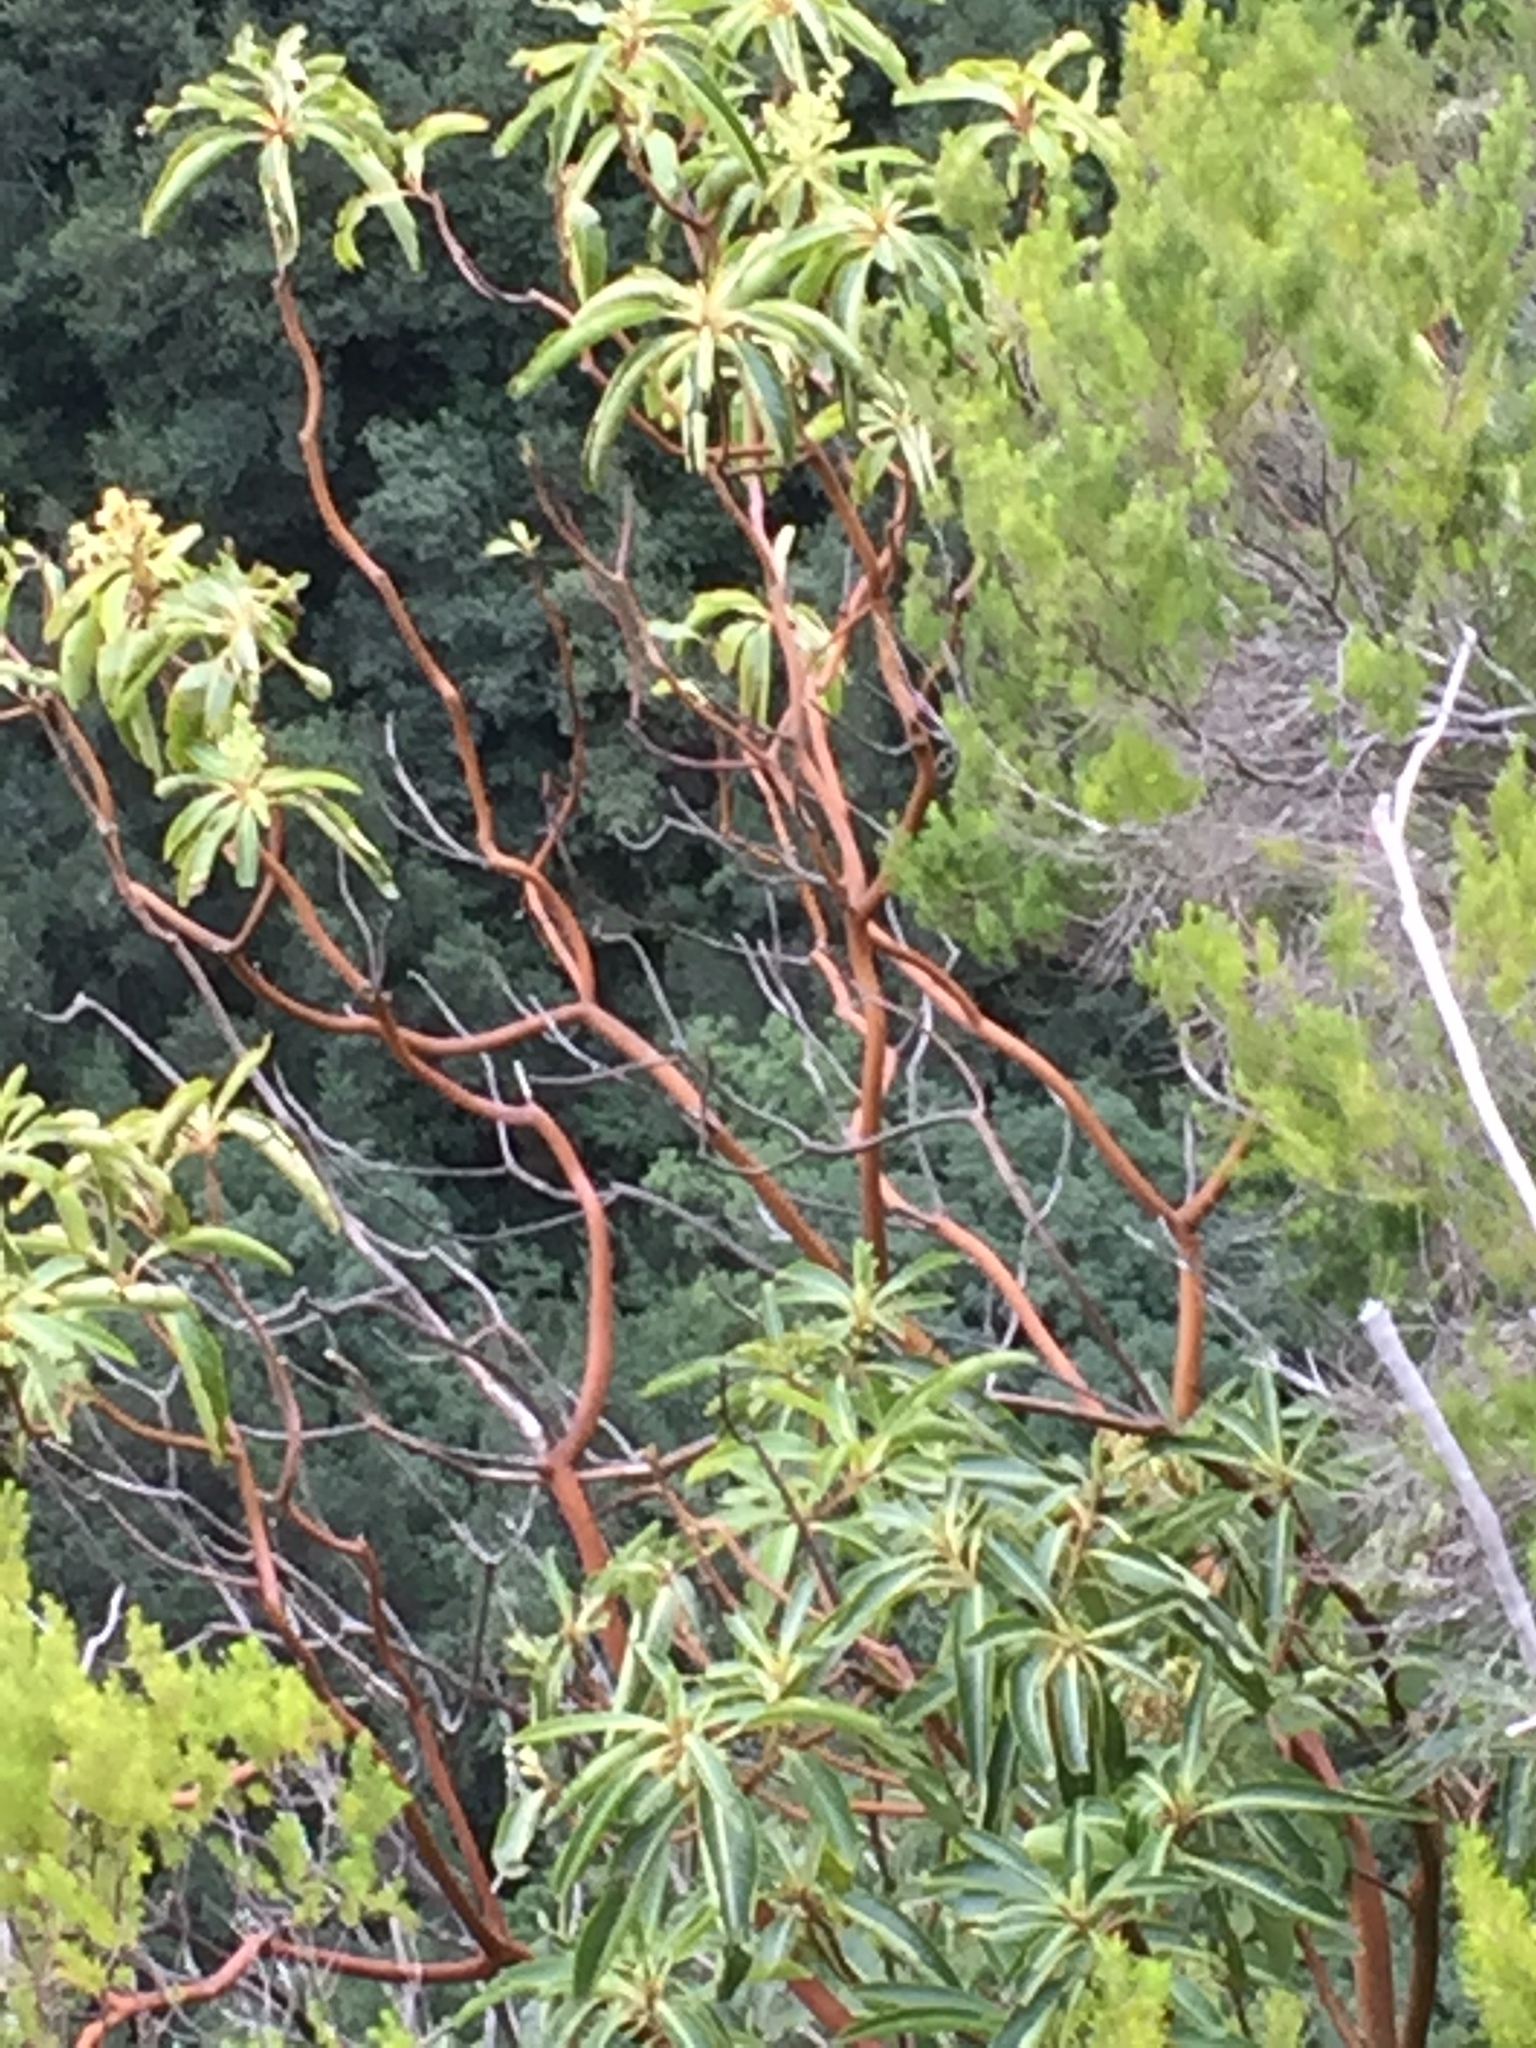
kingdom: Plantae
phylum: Tracheophyta
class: Magnoliopsida
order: Ericales
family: Ericaceae
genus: Arbutus
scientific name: Arbutus canariensis
